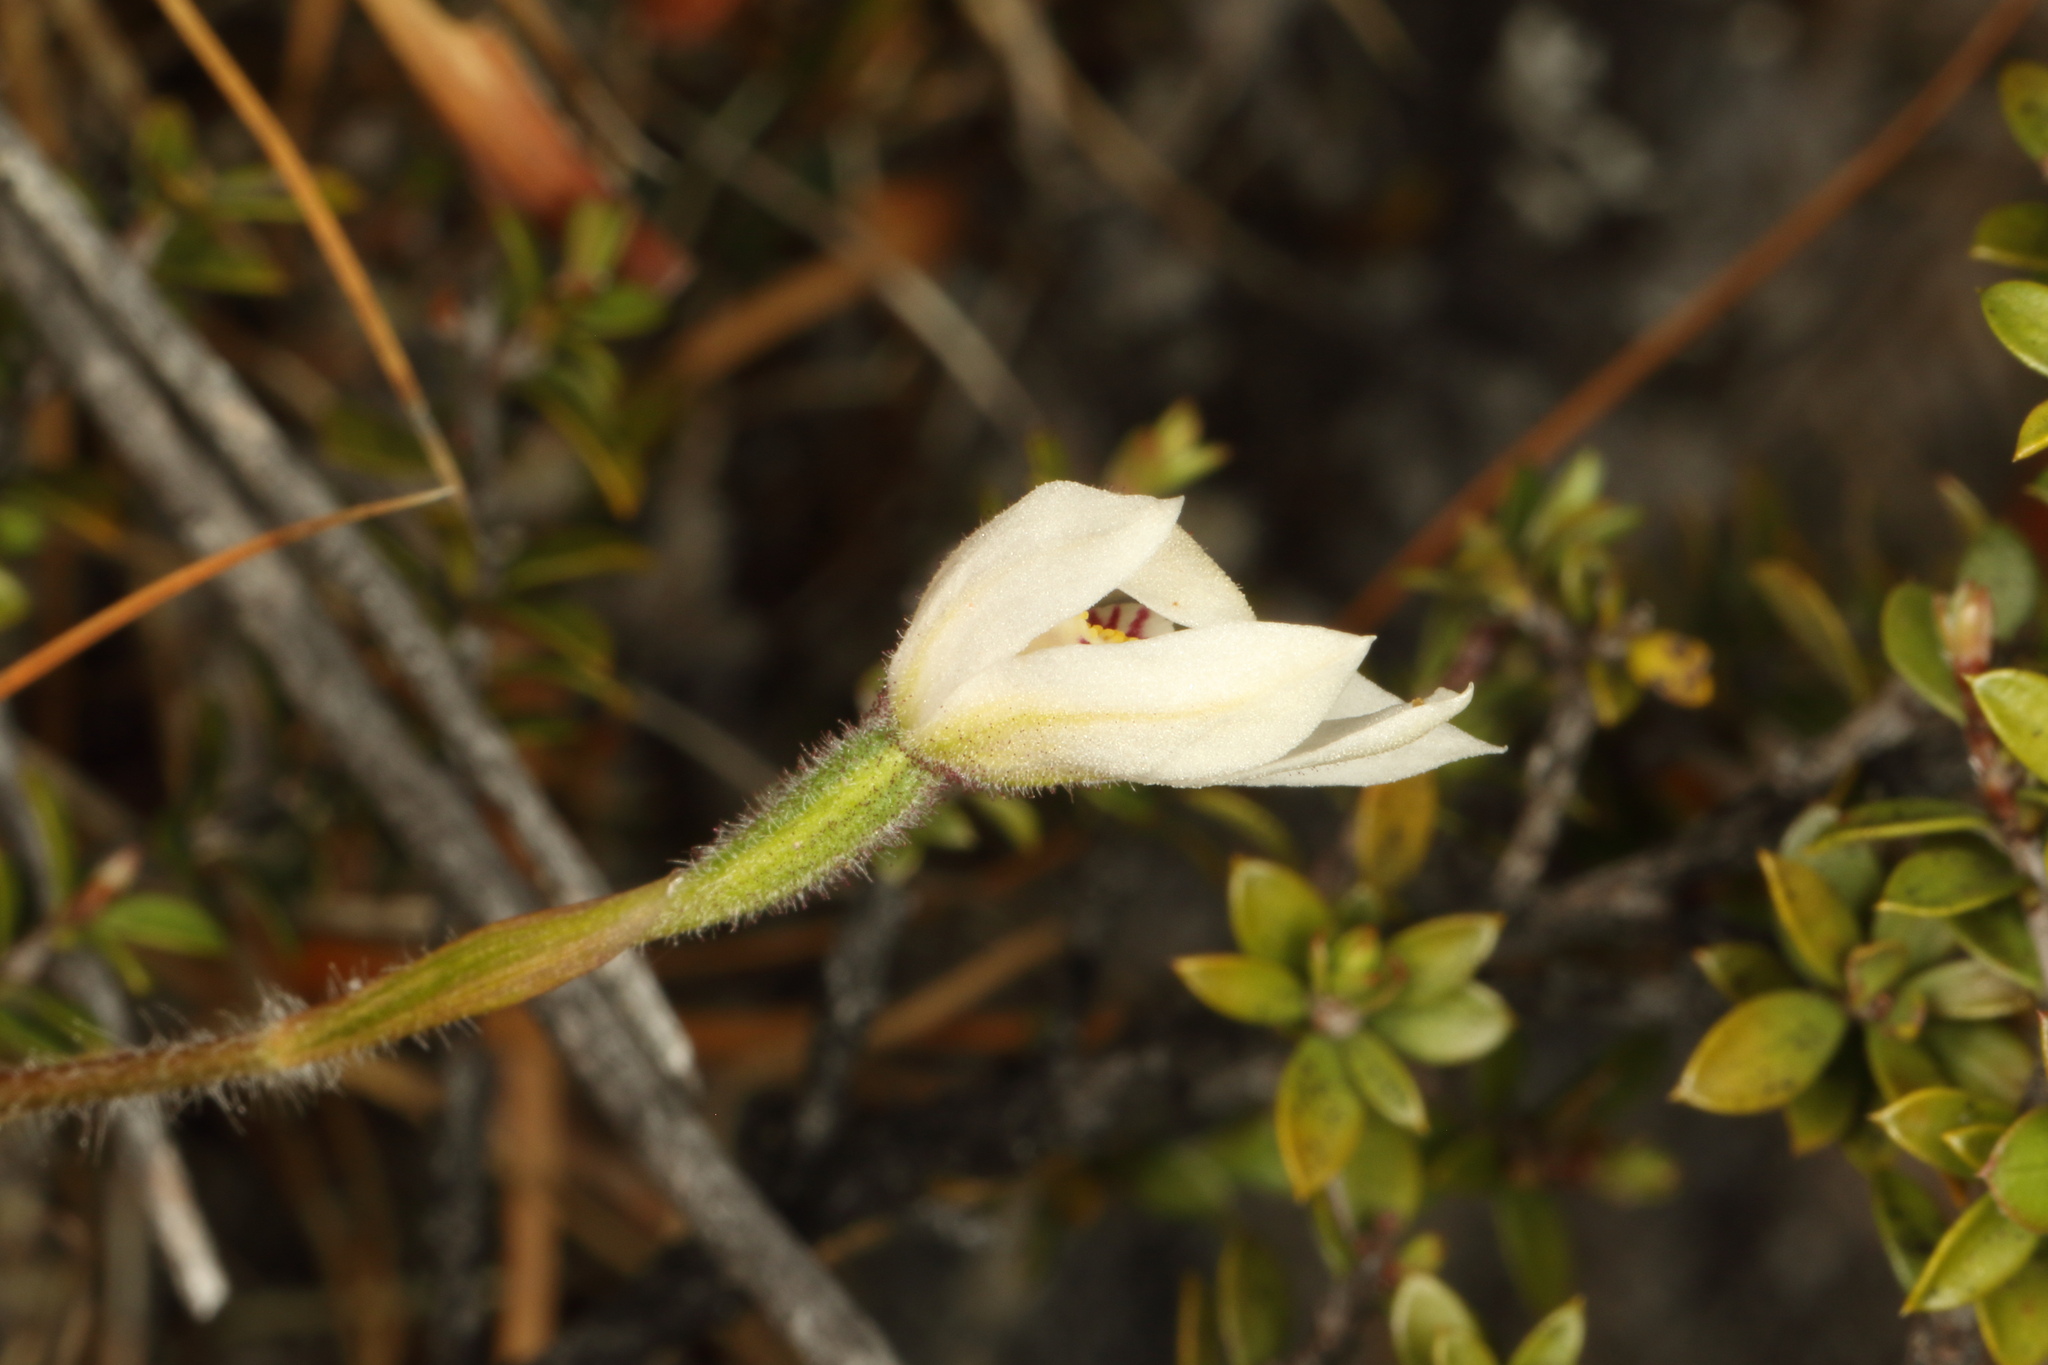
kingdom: Plantae
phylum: Tracheophyta
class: Liliopsida
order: Asparagales
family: Orchidaceae
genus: Caladenia
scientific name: Caladenia lyallii
